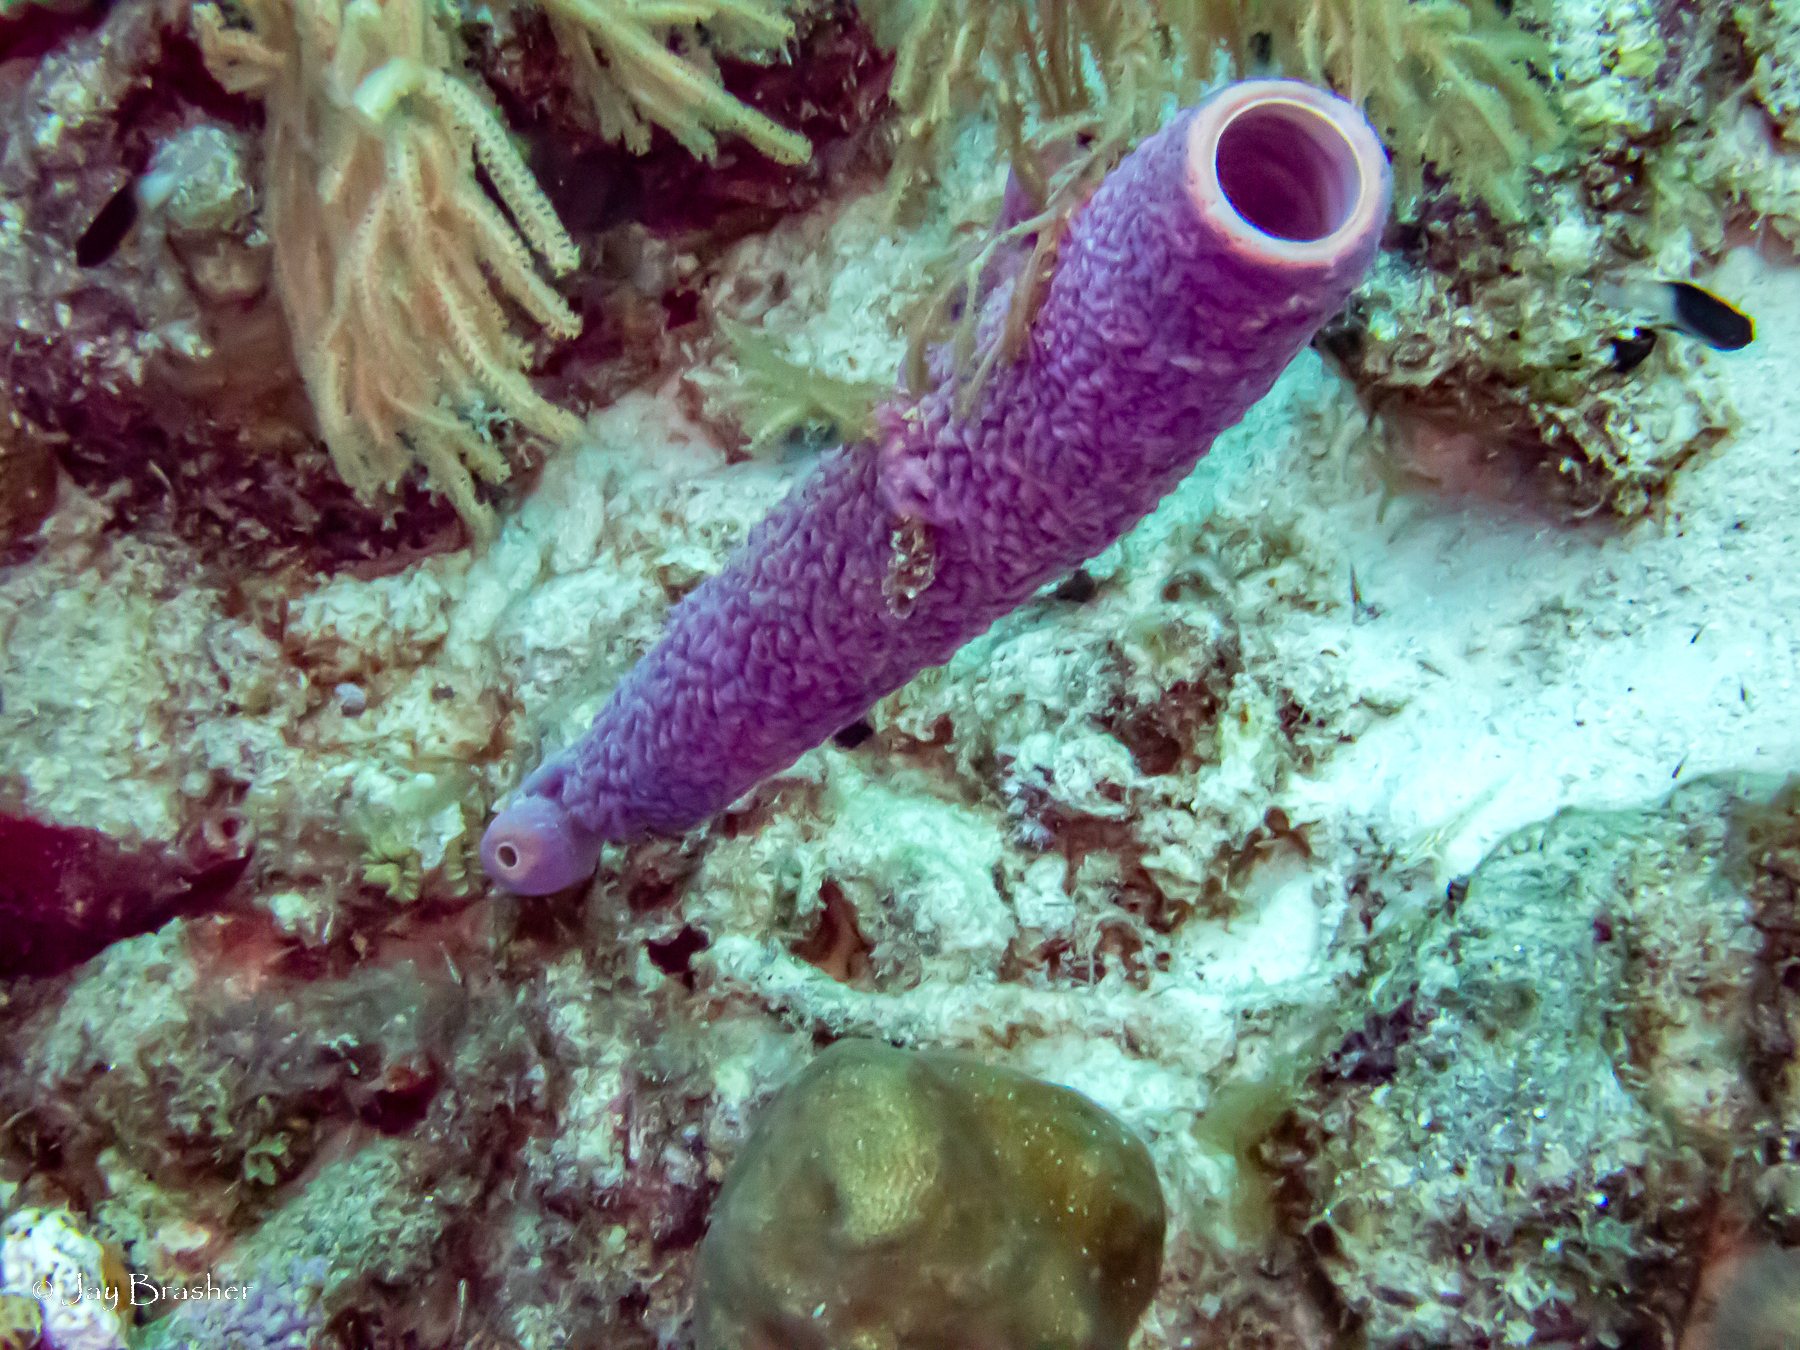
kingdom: Animalia
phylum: Porifera
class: Demospongiae
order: Verongiida
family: Aplysinidae
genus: Aplysina
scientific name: Aplysina archeri
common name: Stove-pipe sponge
